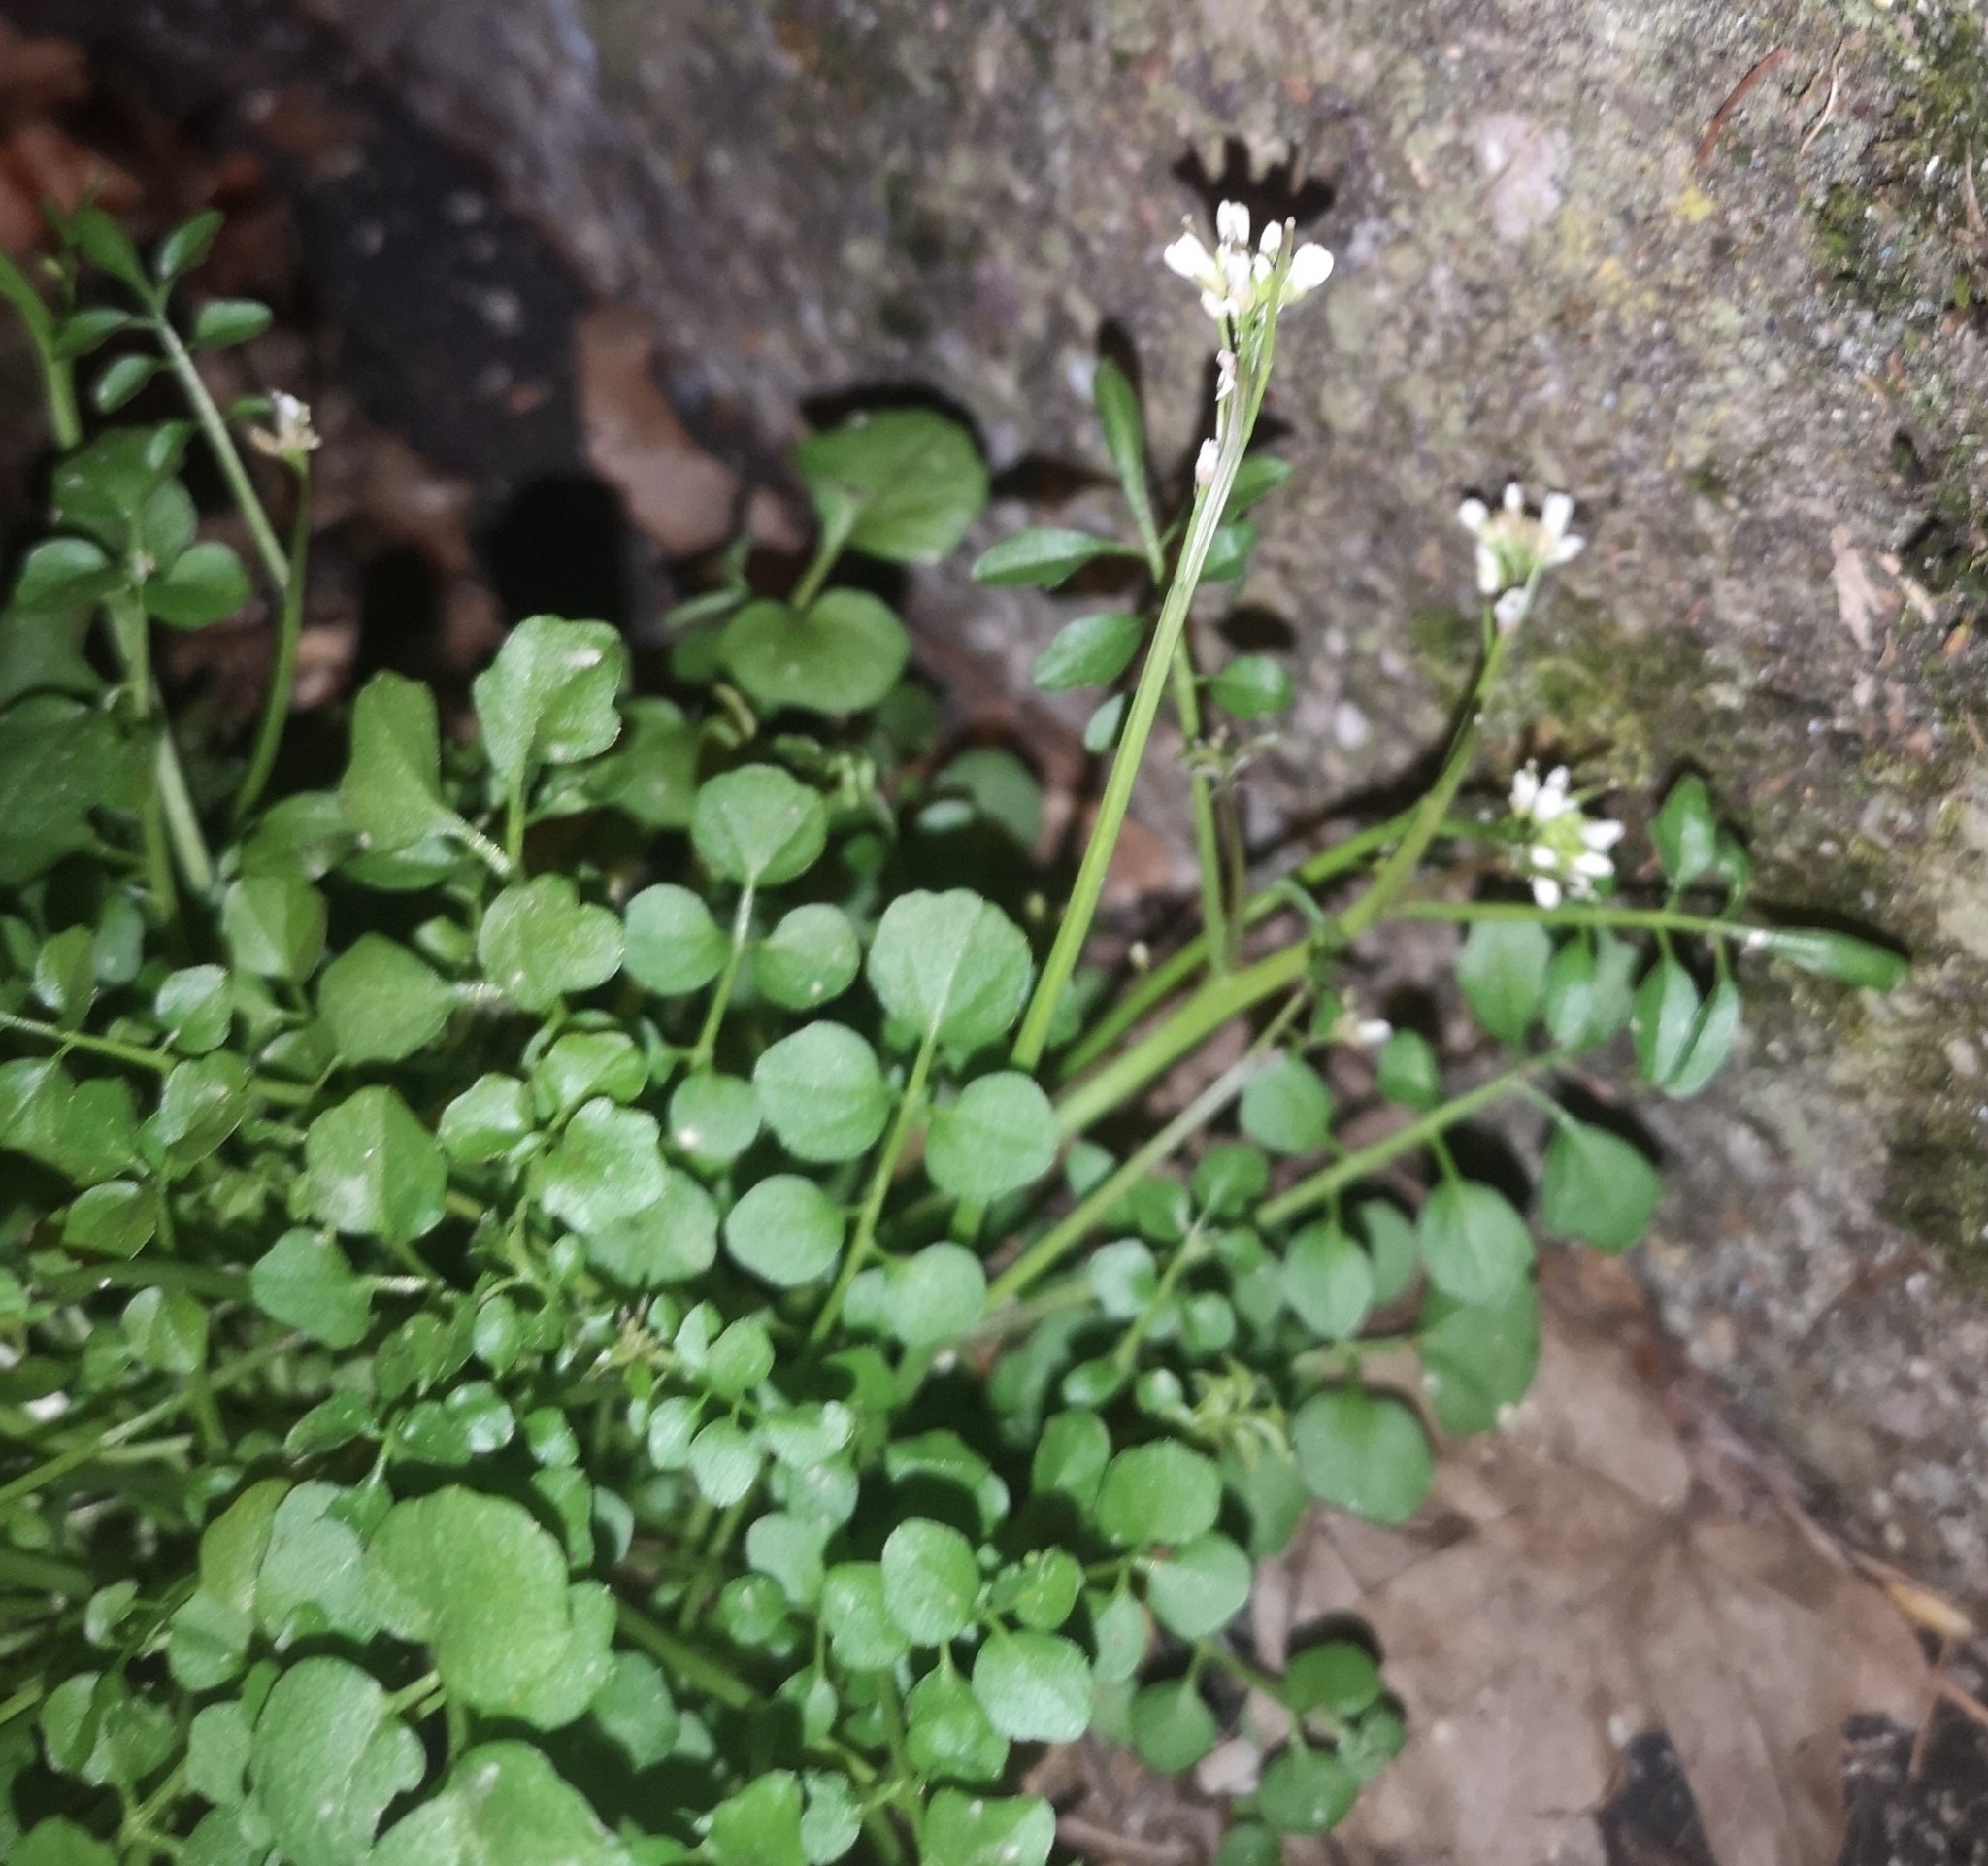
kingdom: Plantae
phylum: Tracheophyta
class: Magnoliopsida
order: Brassicales
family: Brassicaceae
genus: Cardamine
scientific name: Cardamine hirsuta
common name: Hairy bittercress
